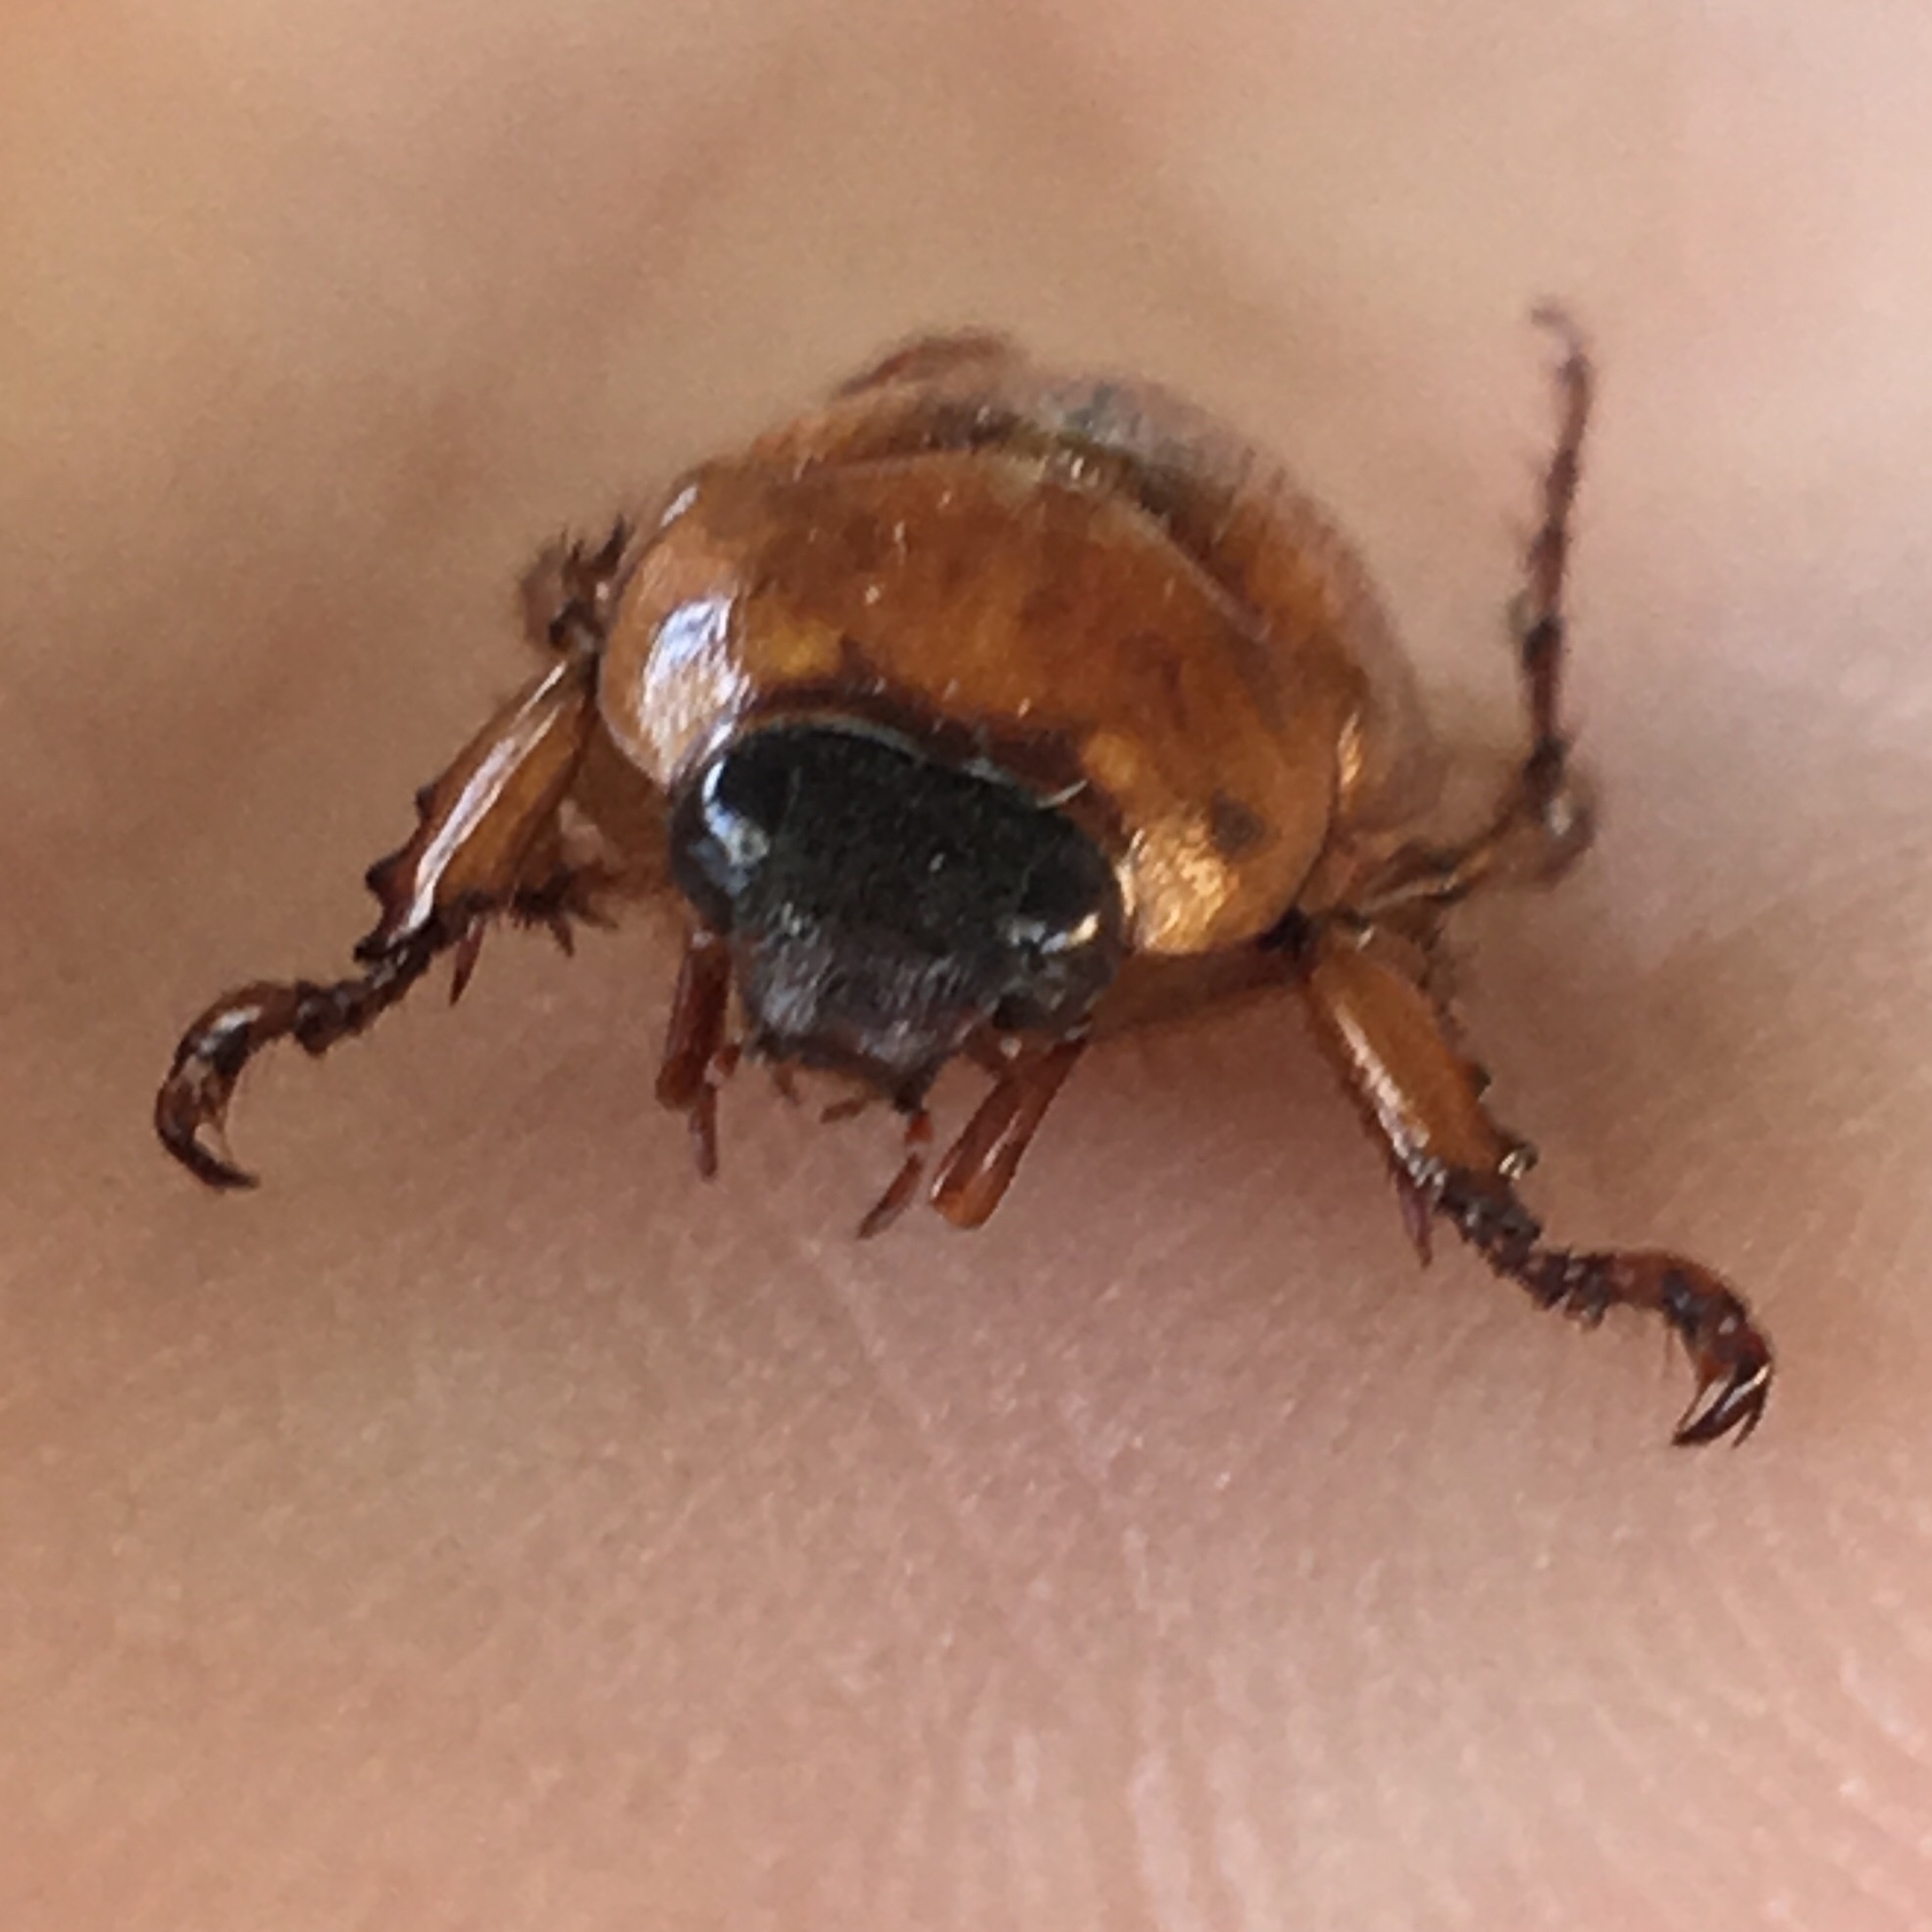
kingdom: Animalia
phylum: Arthropoda
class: Insecta
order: Coleoptera
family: Scarabaeidae
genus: Cyclocephala
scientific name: Cyclocephala lurida
